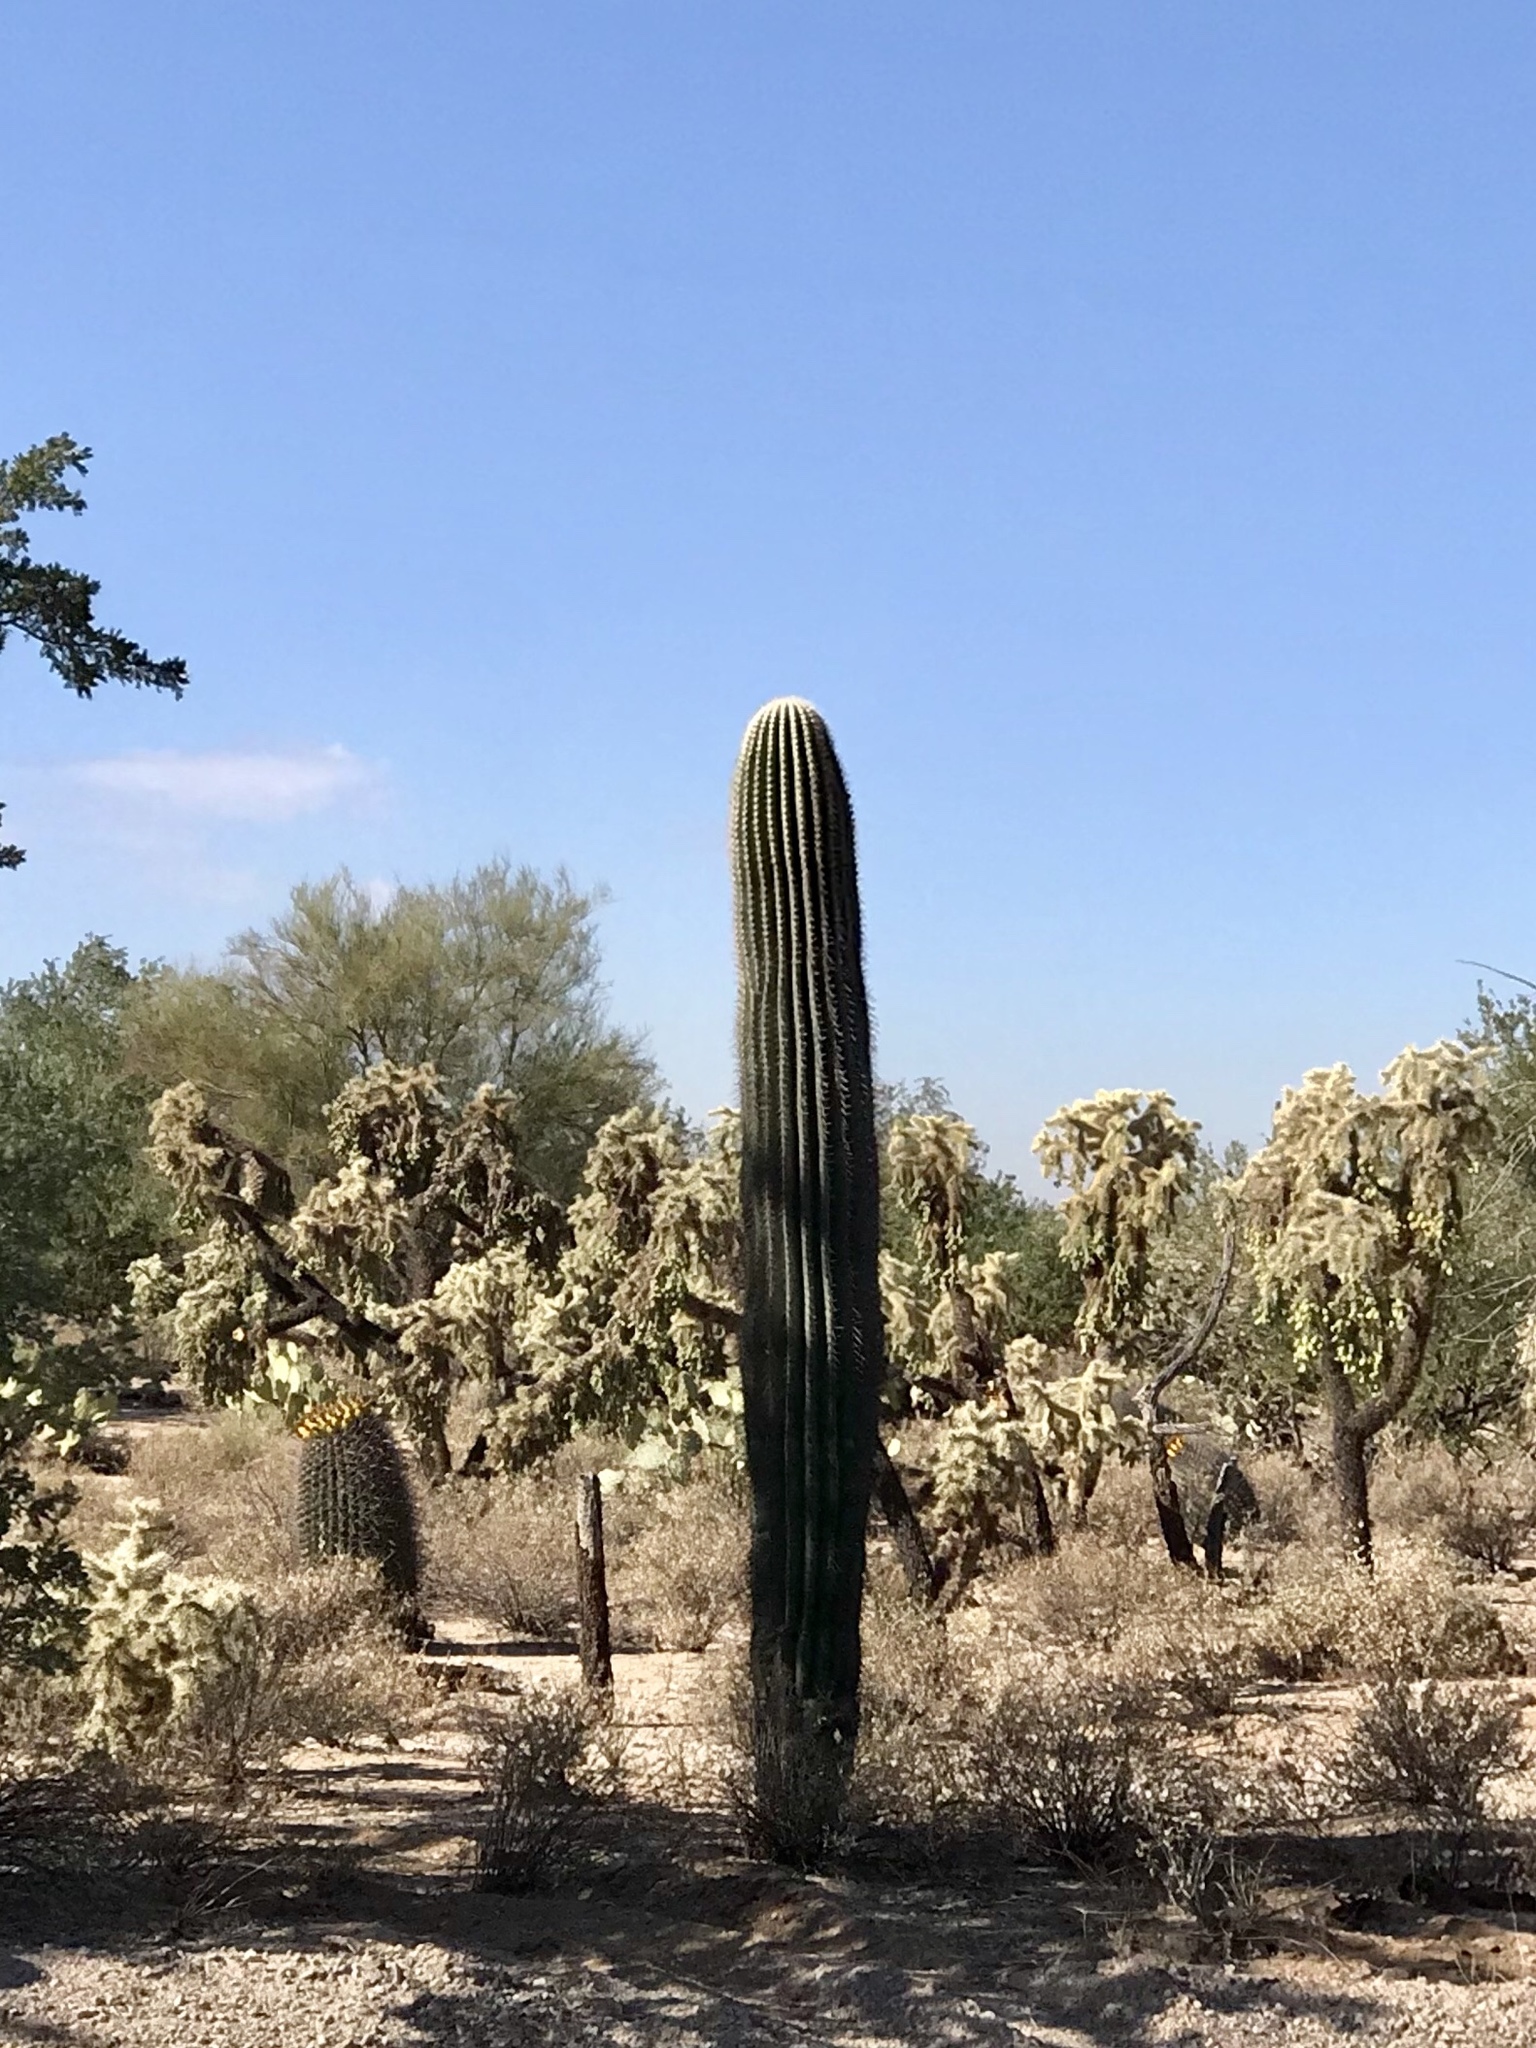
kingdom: Plantae
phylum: Tracheophyta
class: Magnoliopsida
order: Caryophyllales
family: Cactaceae
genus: Carnegiea
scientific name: Carnegiea gigantea
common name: Saguaro
